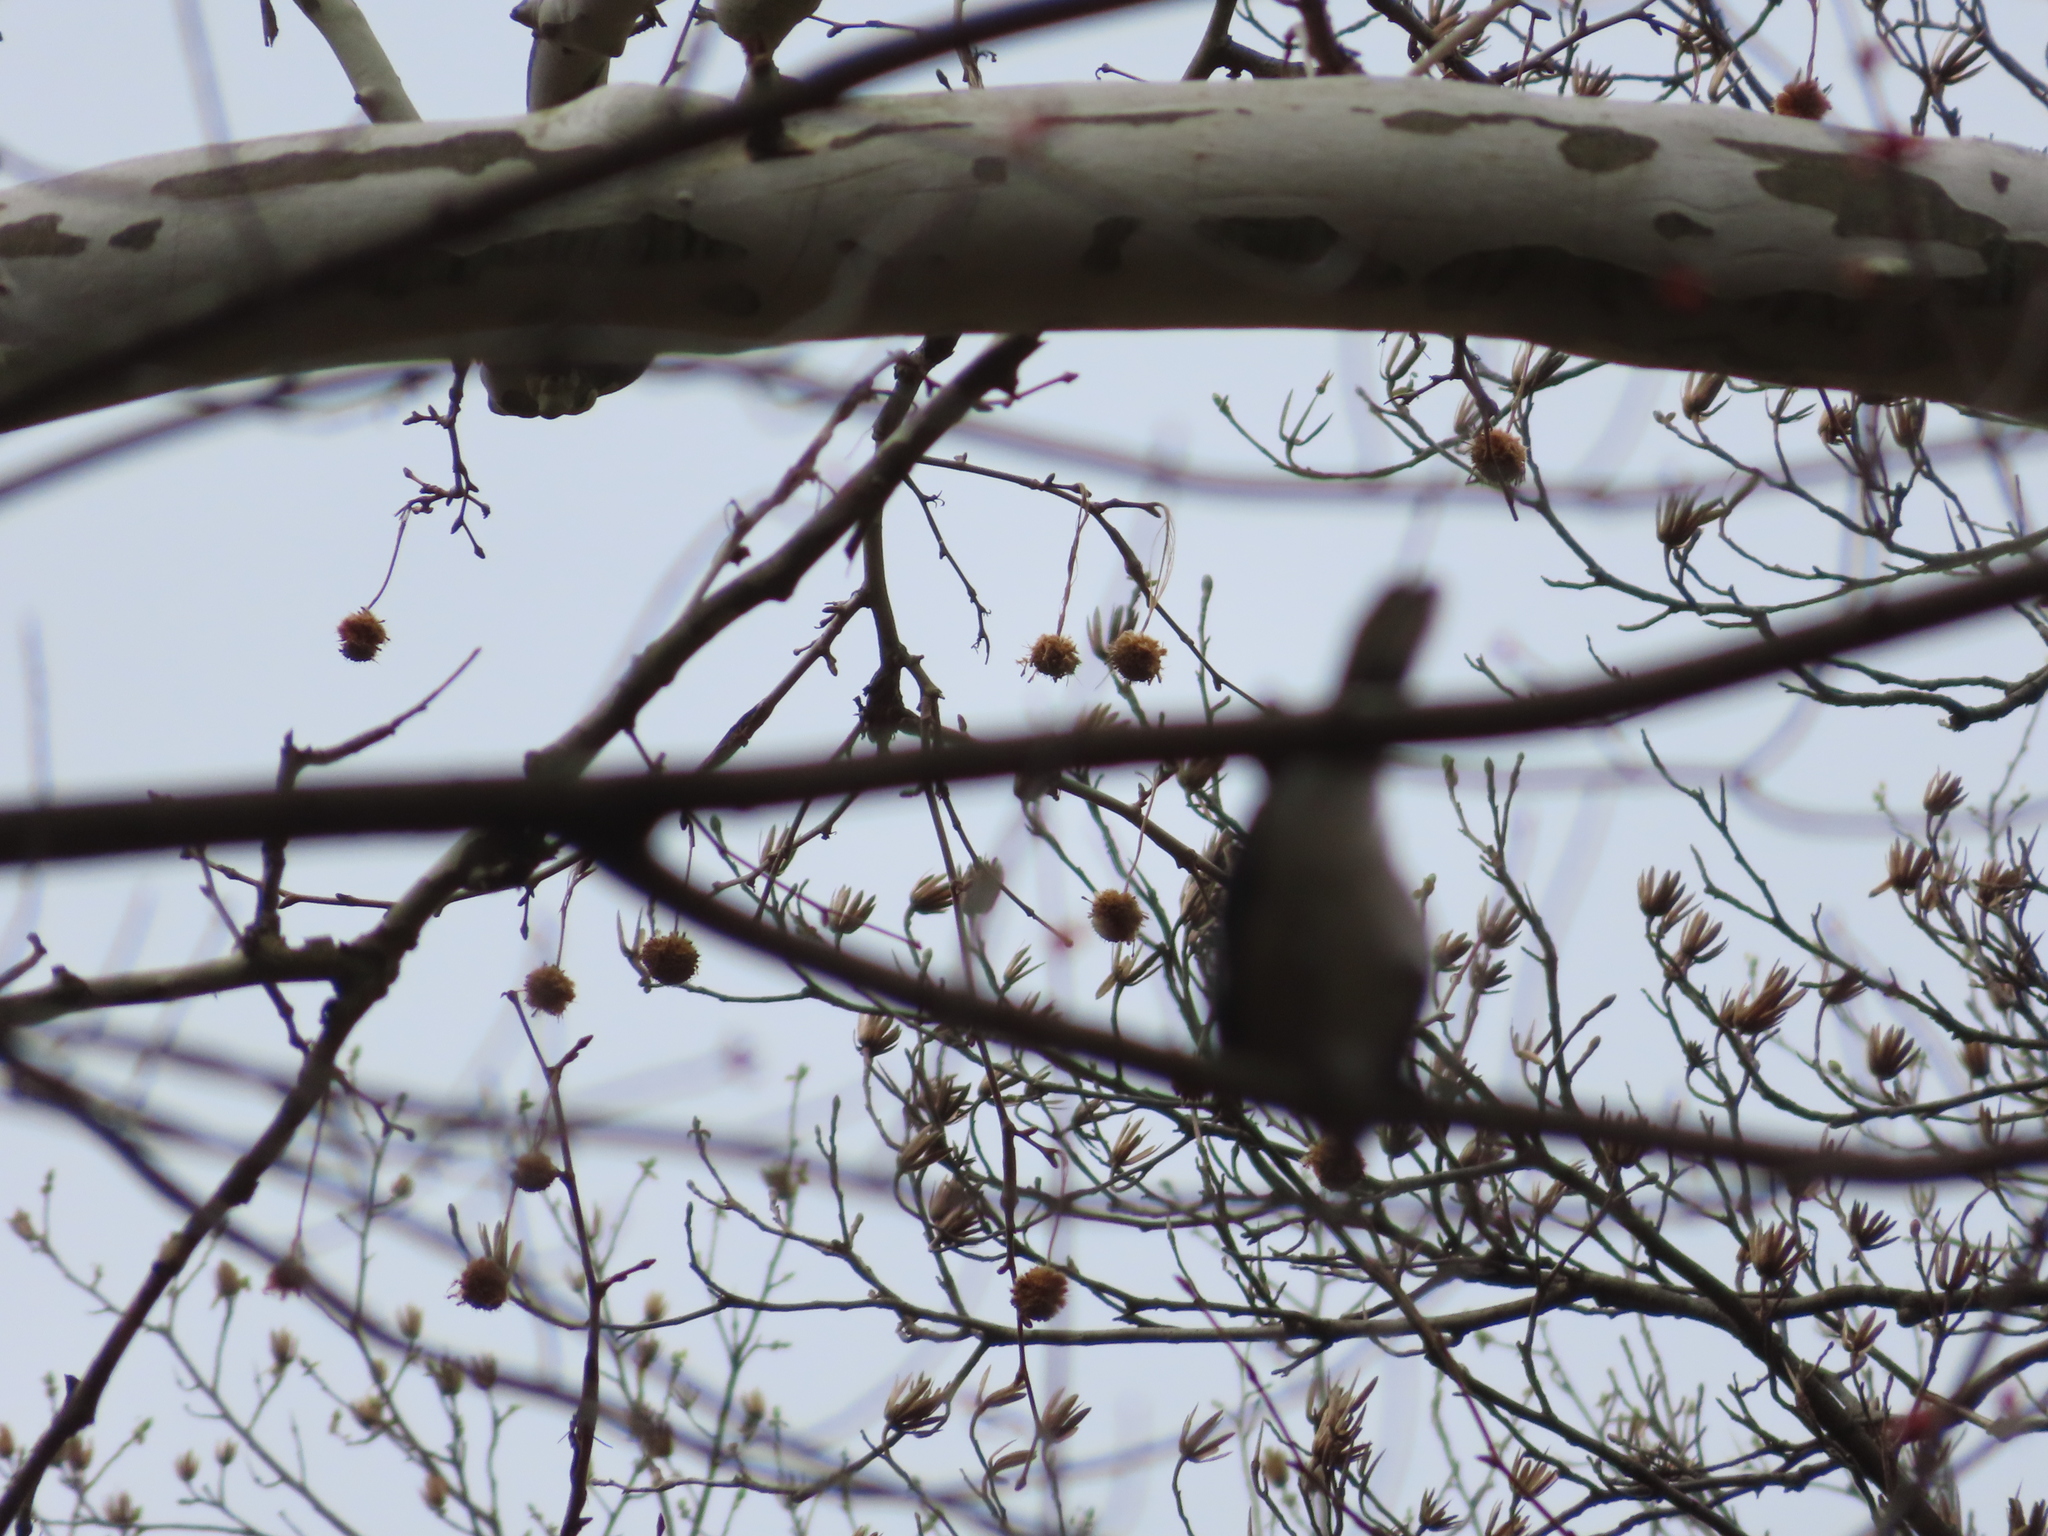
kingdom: Animalia
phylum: Chordata
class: Aves
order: Passeriformes
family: Corvidae
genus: Cyanocitta
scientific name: Cyanocitta cristata
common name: Blue jay
